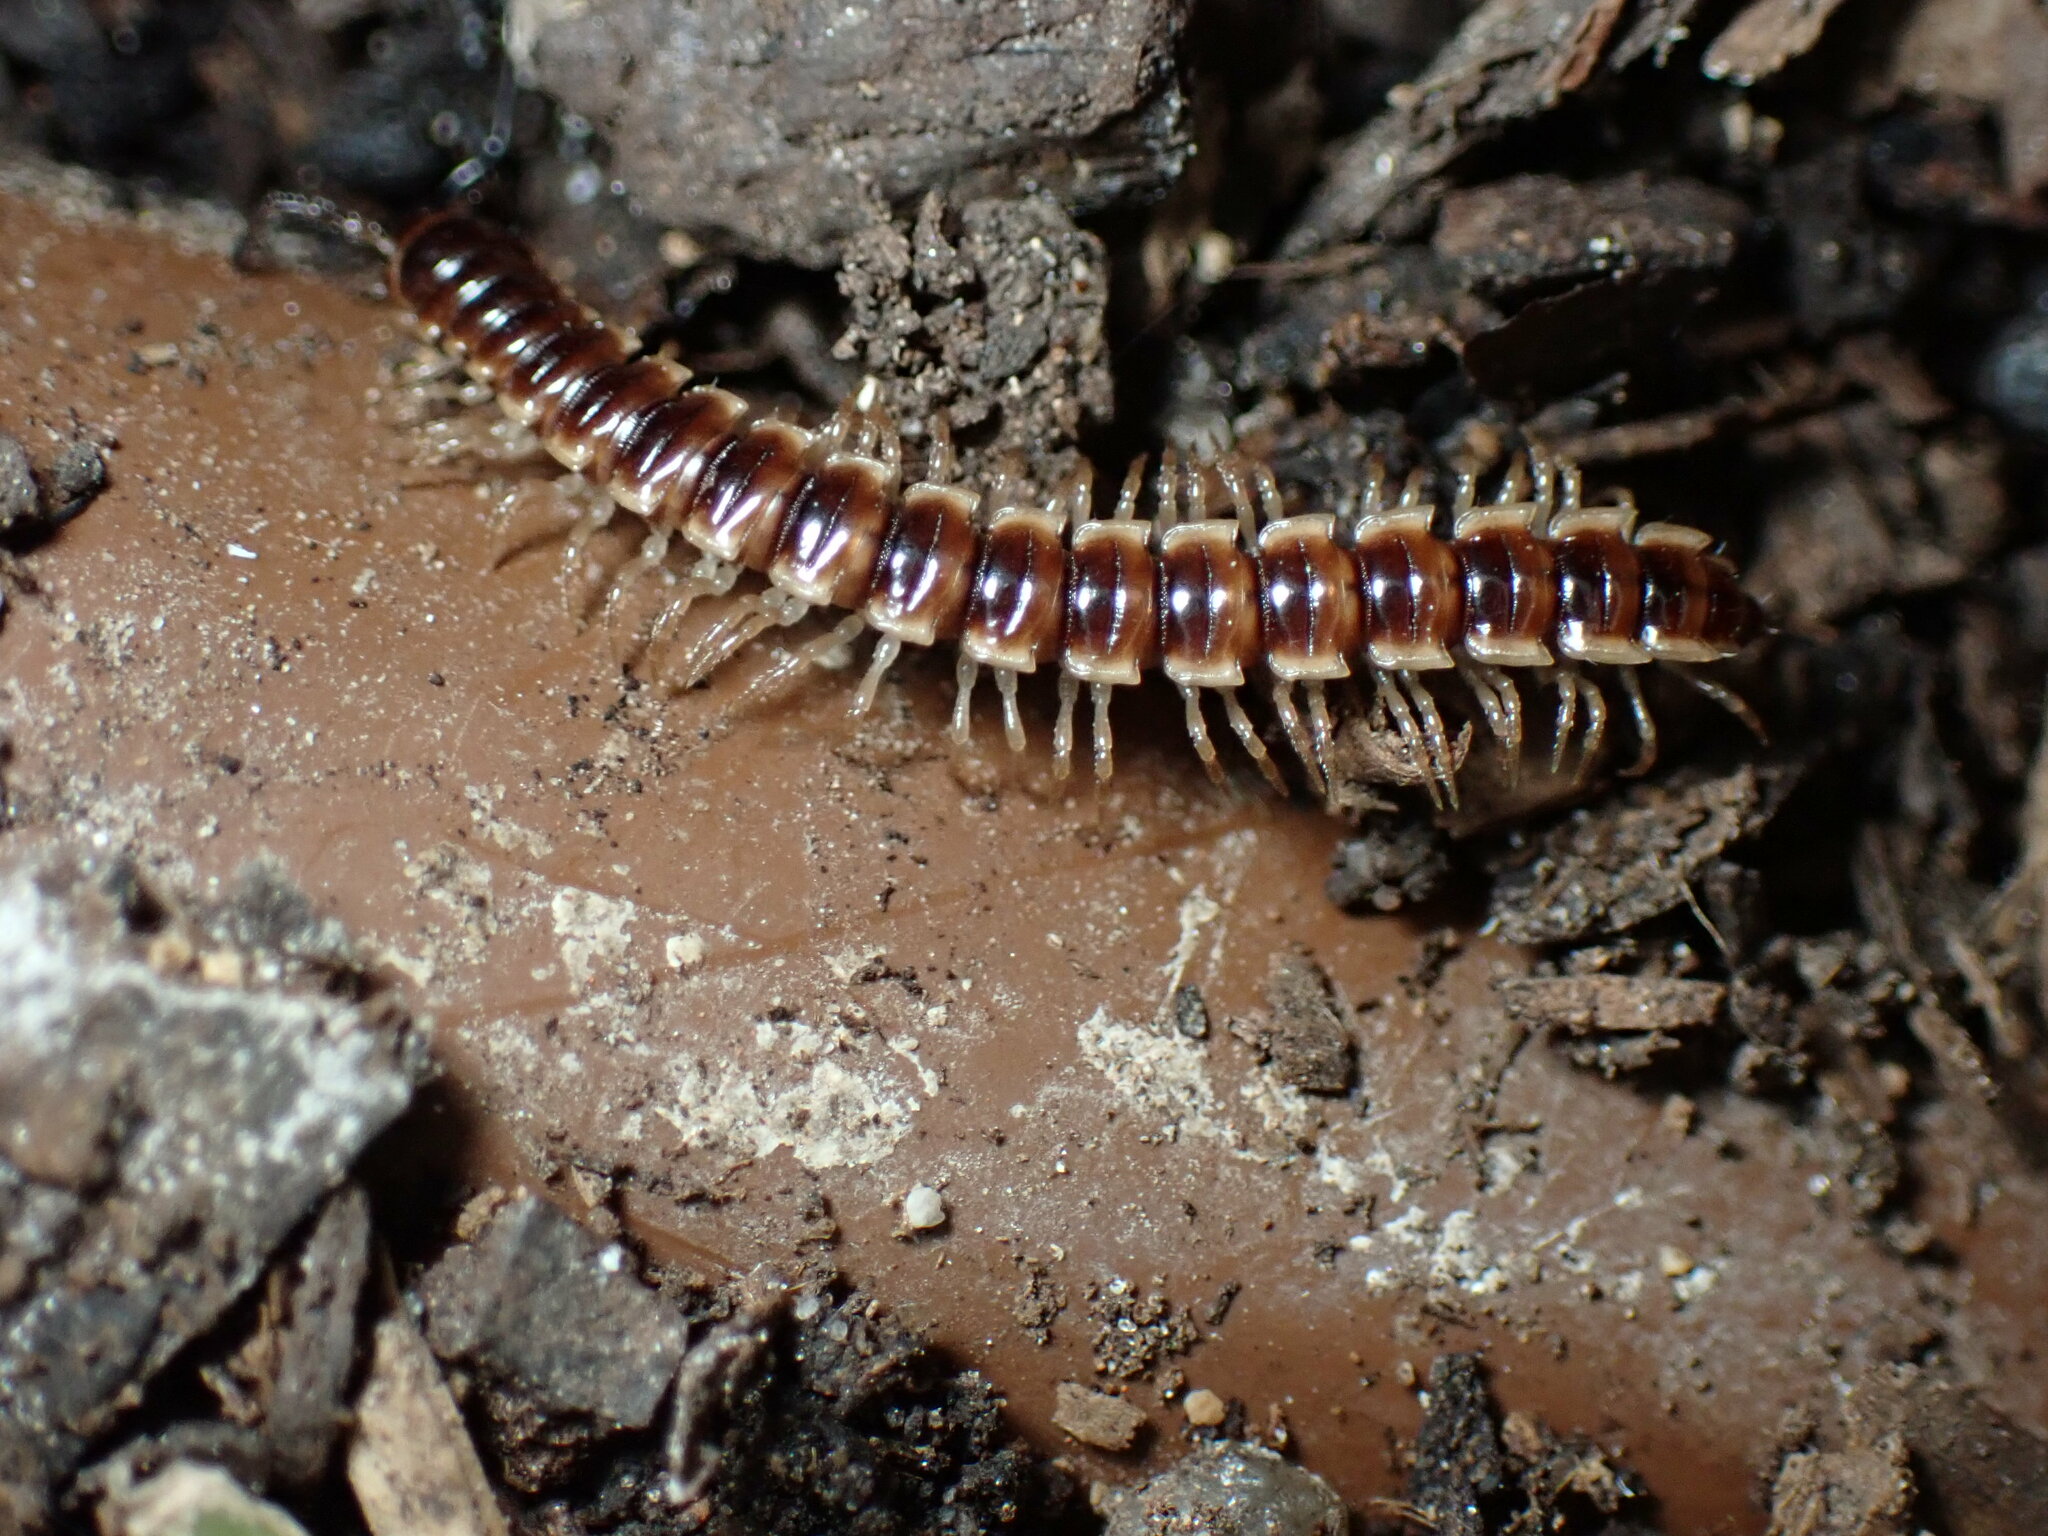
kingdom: Animalia
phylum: Arthropoda
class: Diplopoda
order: Polydesmida
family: Paradoxosomatidae
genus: Oxidus
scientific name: Oxidus gracilis
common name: Greenhouse millipede
